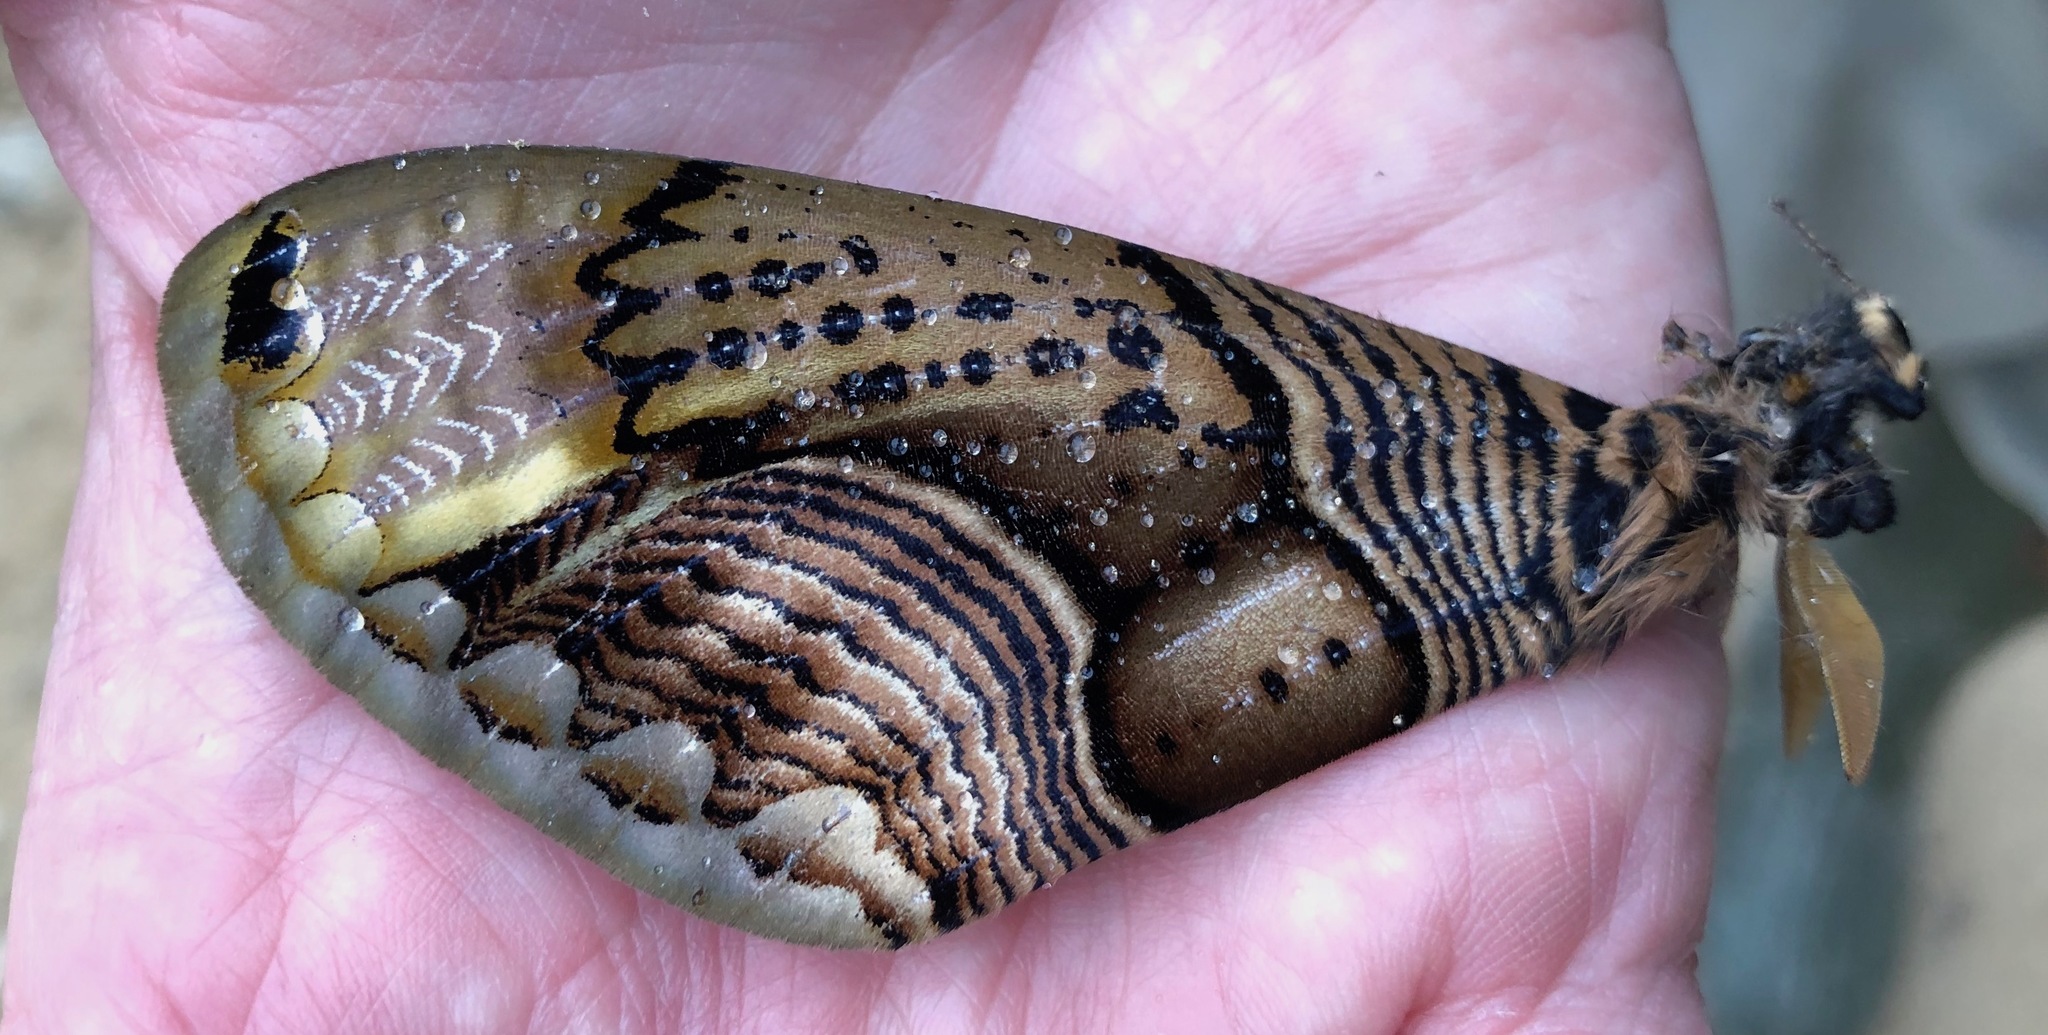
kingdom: Animalia
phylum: Arthropoda
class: Insecta
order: Lepidoptera
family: Brahmaeidae
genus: Brahmaea
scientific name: Brahmaea wallichii
